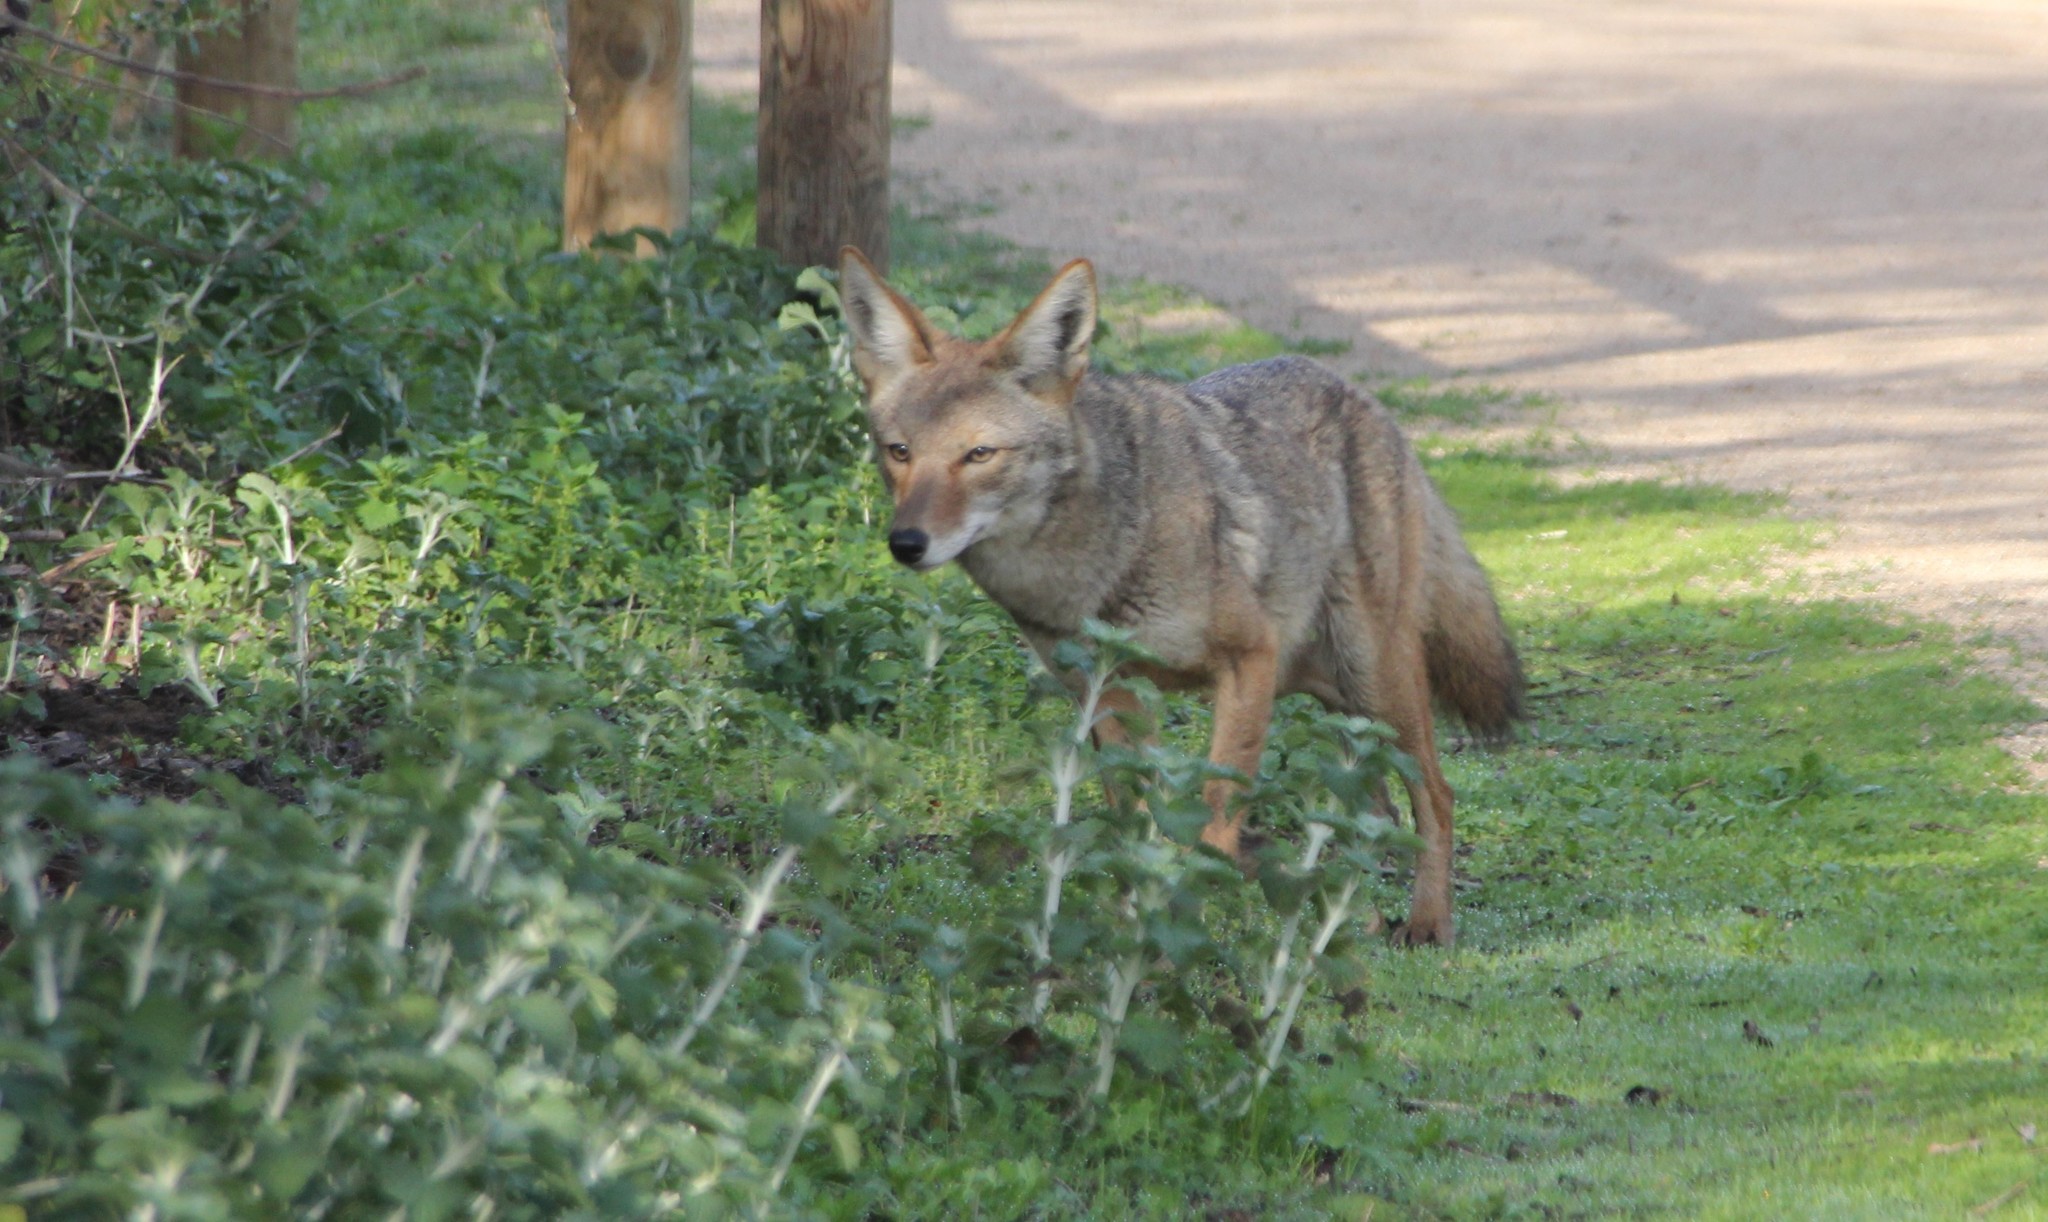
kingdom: Animalia
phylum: Chordata
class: Mammalia
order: Carnivora
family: Canidae
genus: Canis
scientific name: Canis latrans
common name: Coyote
